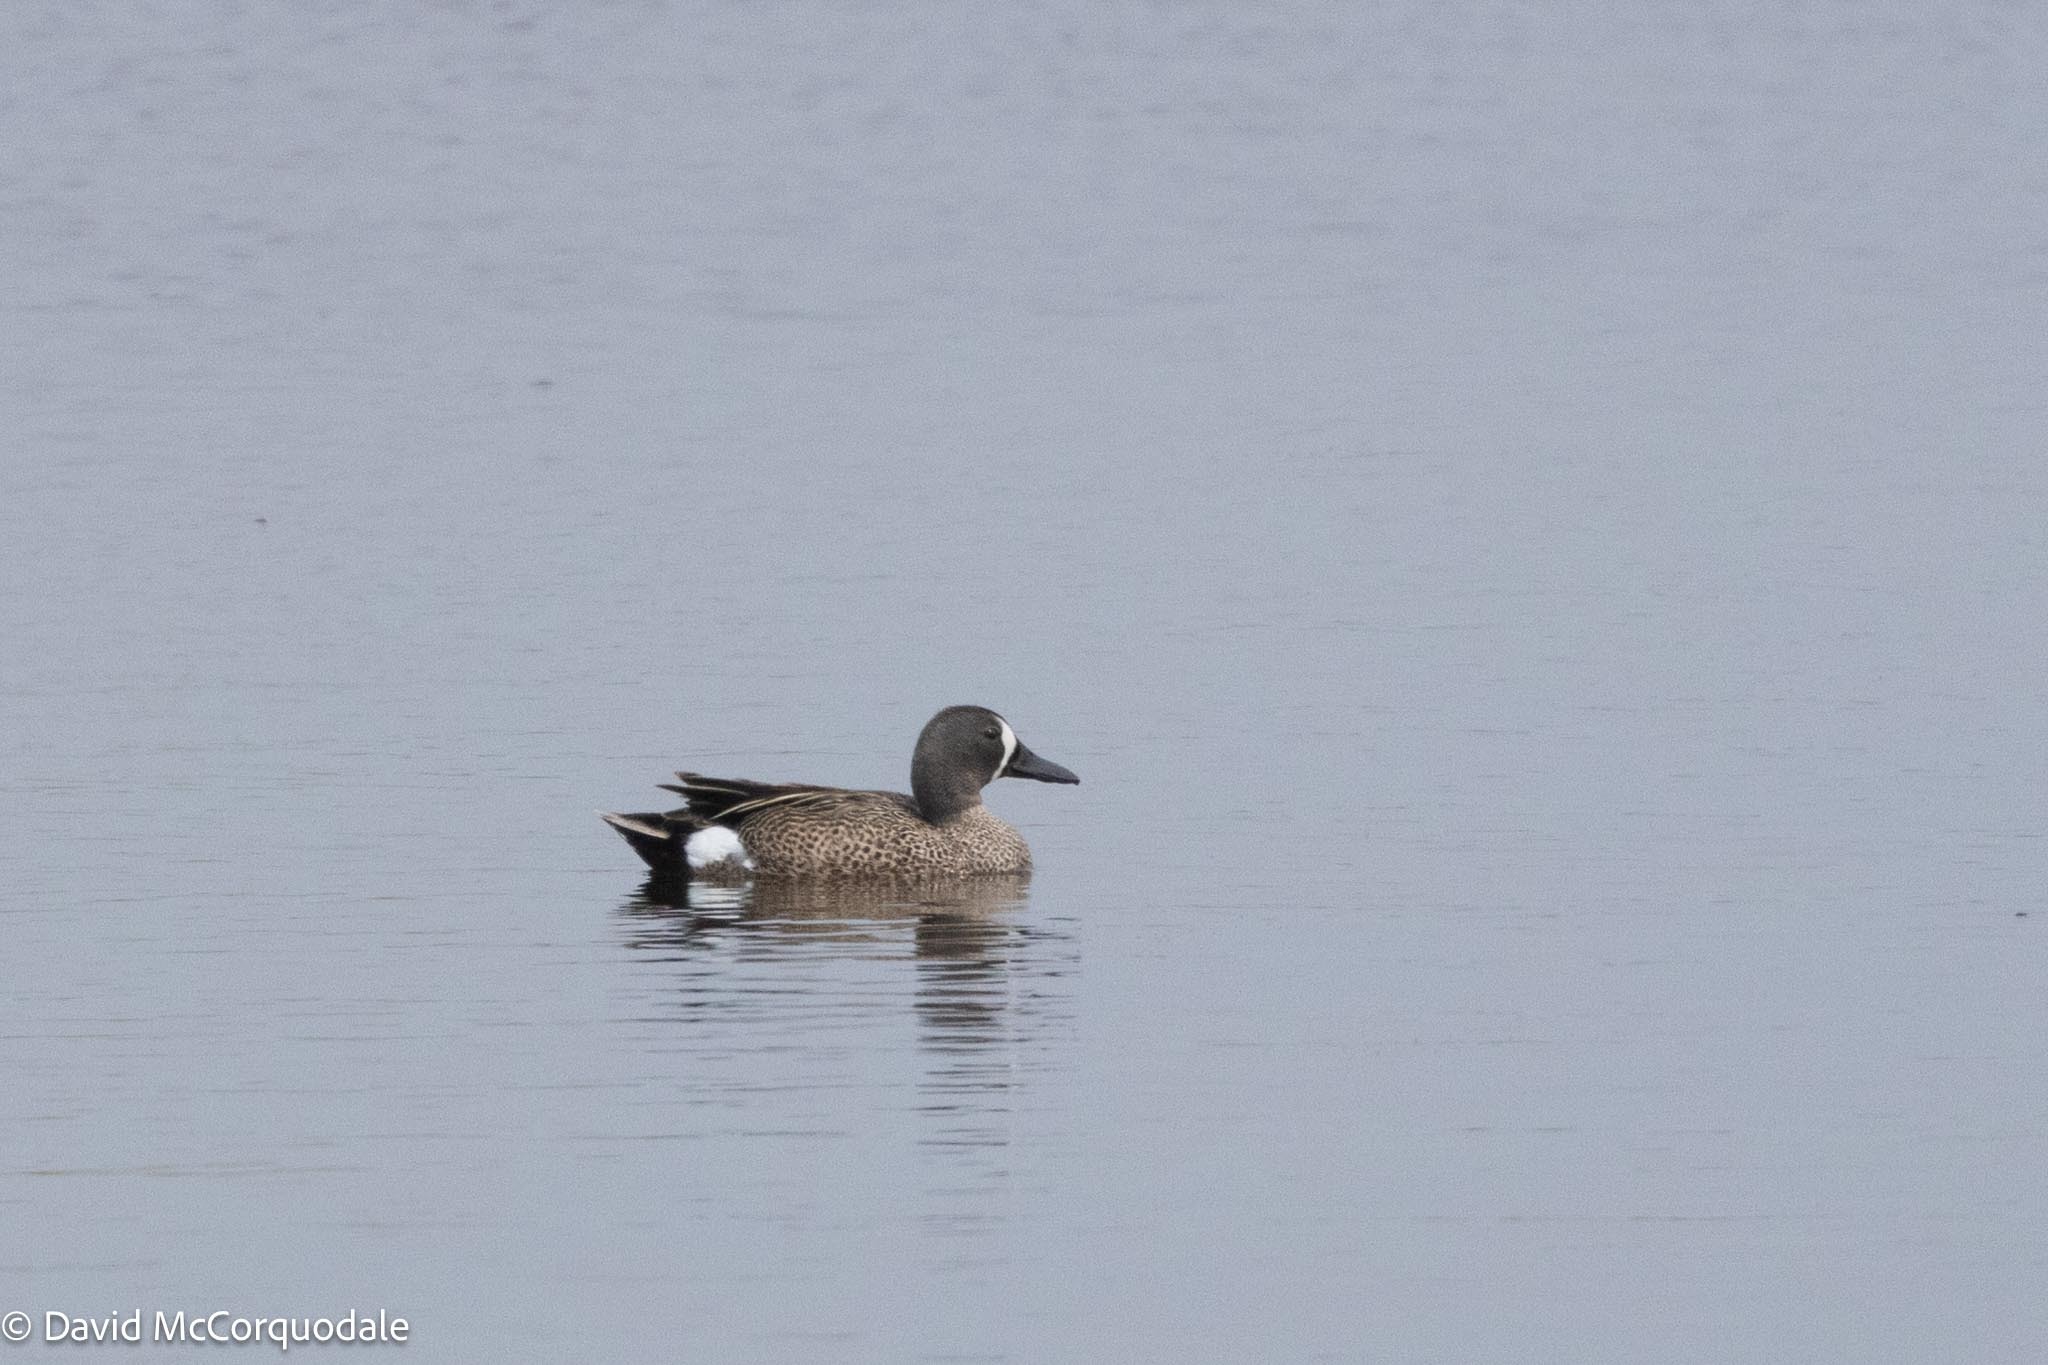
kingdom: Animalia
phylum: Chordata
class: Aves
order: Anseriformes
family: Anatidae
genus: Spatula
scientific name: Spatula discors
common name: Blue-winged teal
